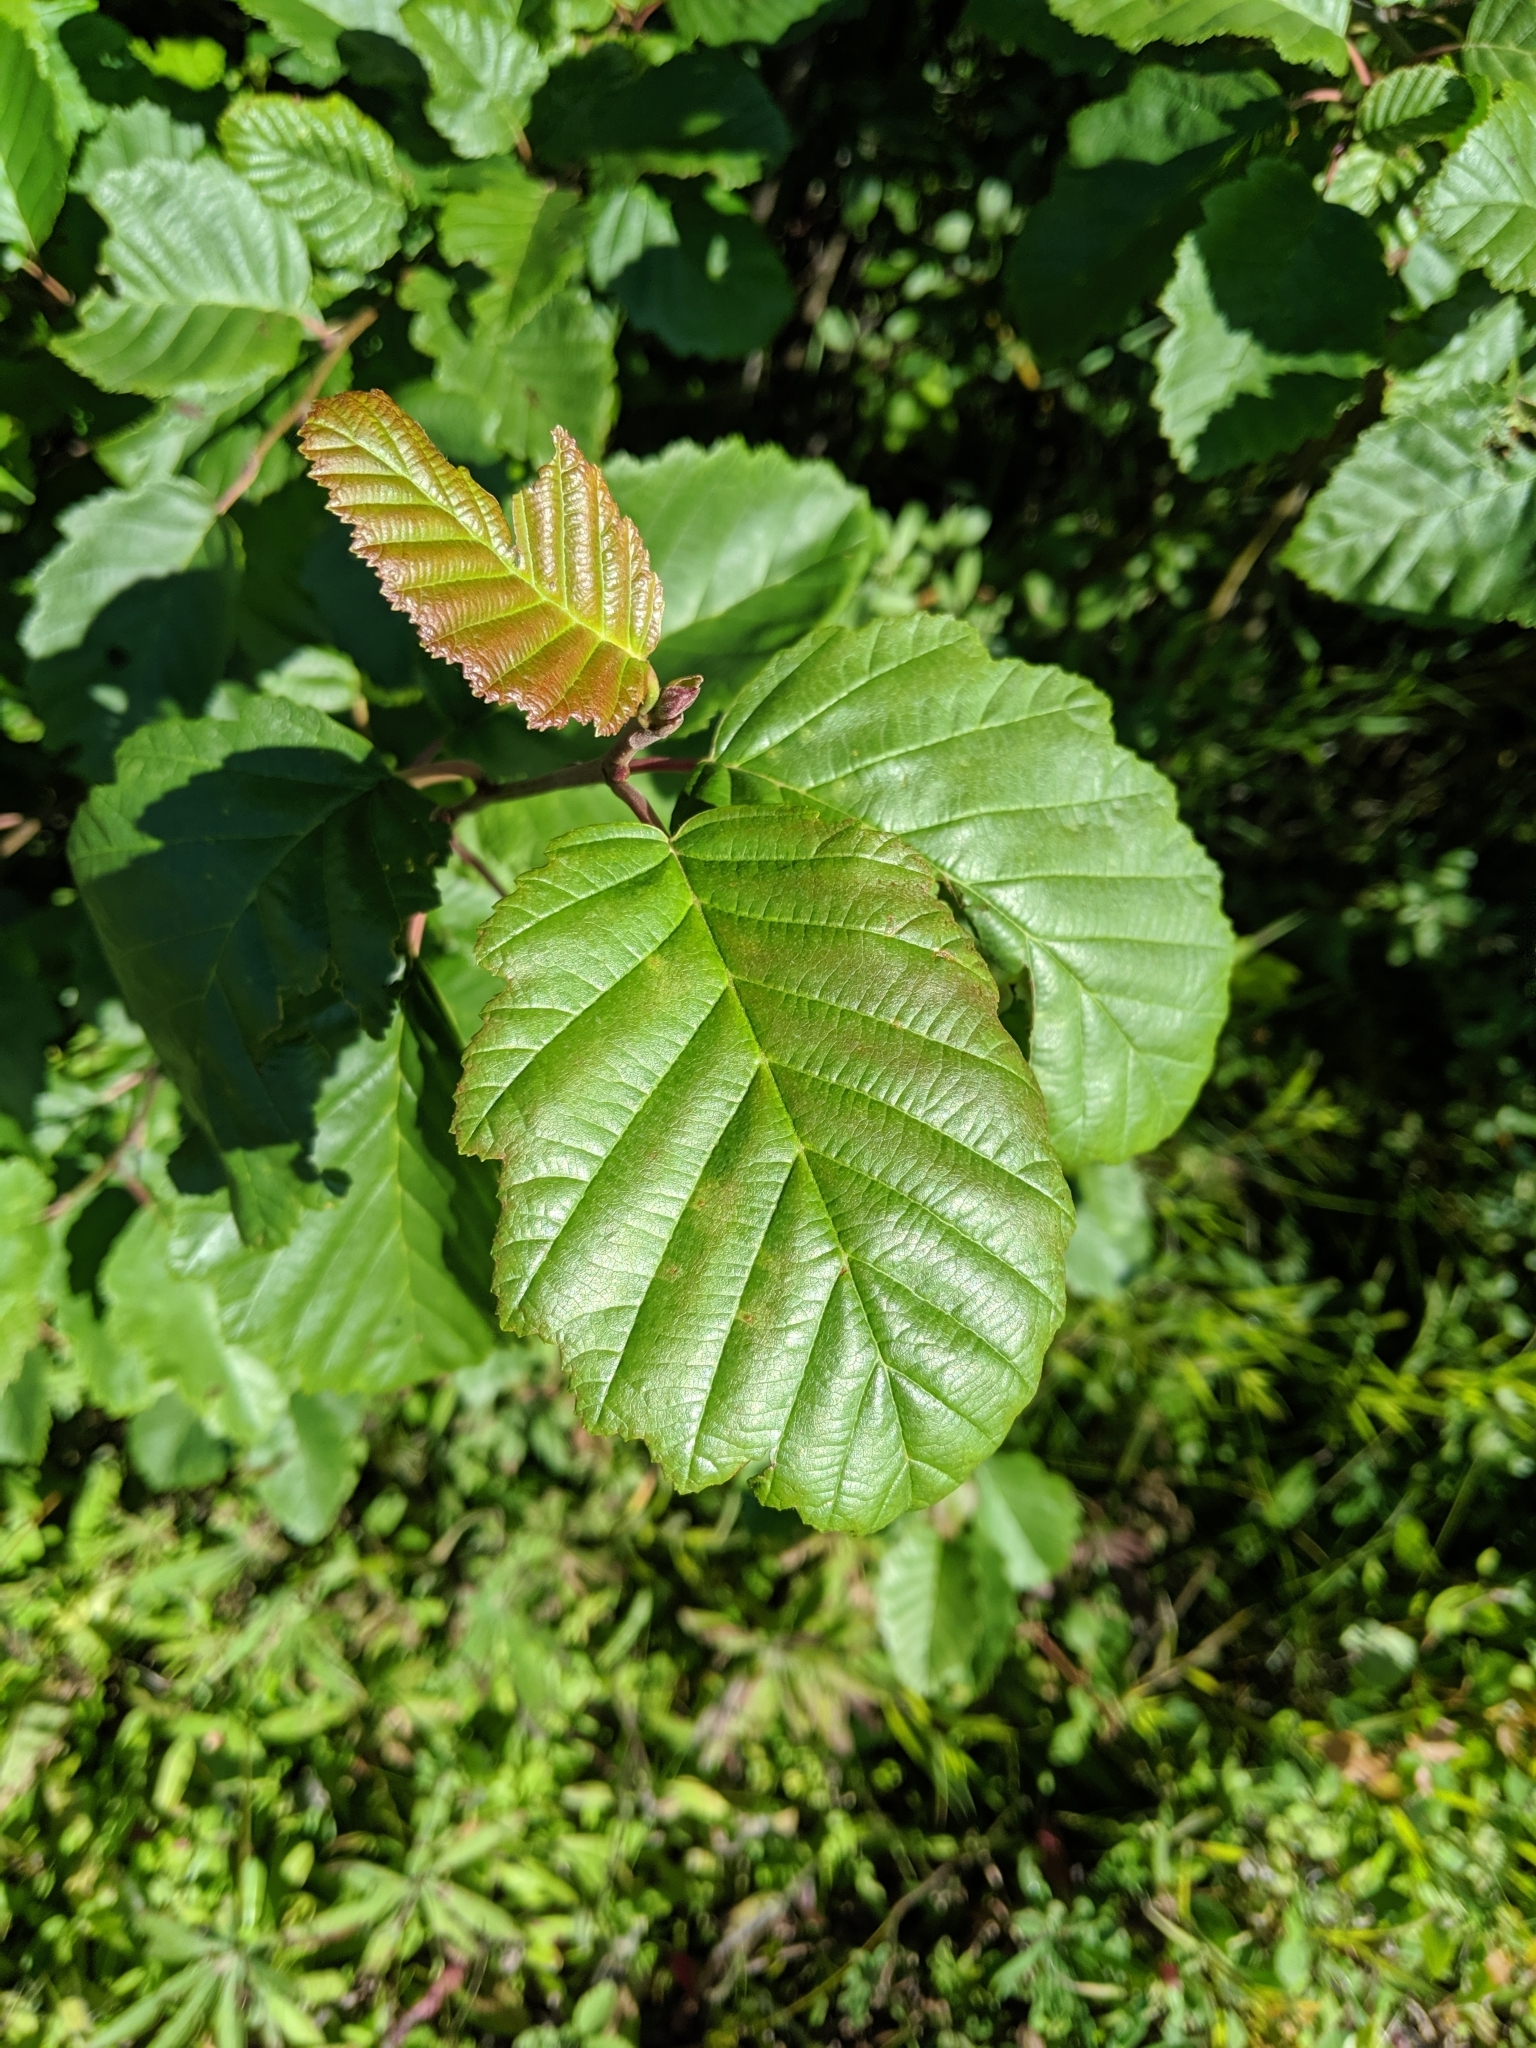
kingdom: Plantae
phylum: Tracheophyta
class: Magnoliopsida
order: Fagales
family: Betulaceae
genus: Alnus
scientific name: Alnus incana
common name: Grey alder
